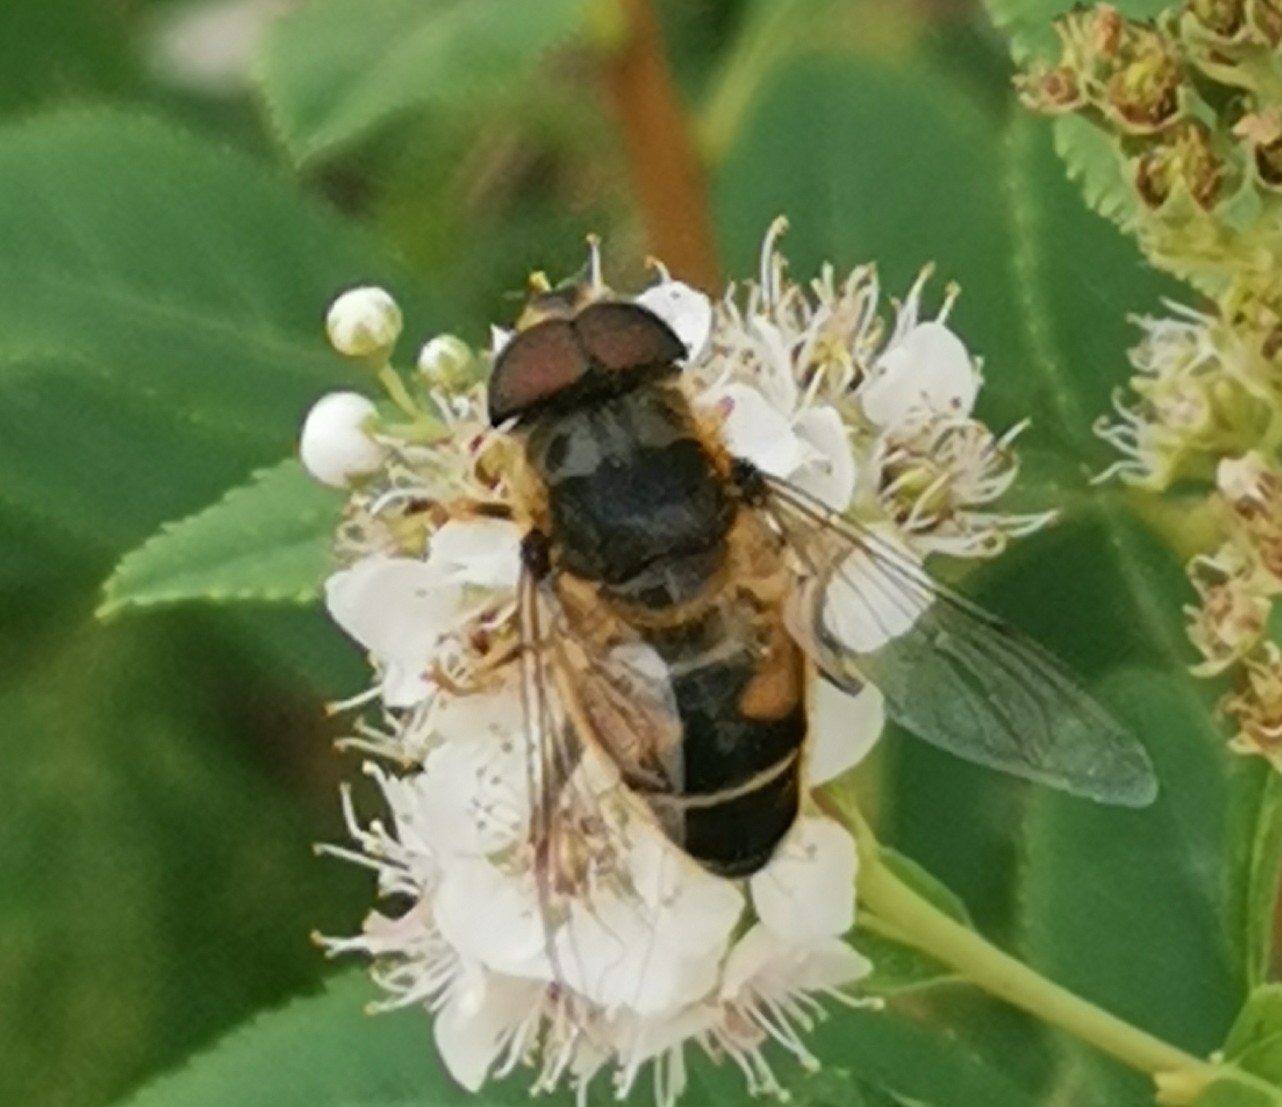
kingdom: Animalia
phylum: Arthropoda
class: Insecta
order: Diptera
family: Syrphidae
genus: Eristalis
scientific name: Eristalis pertinax
